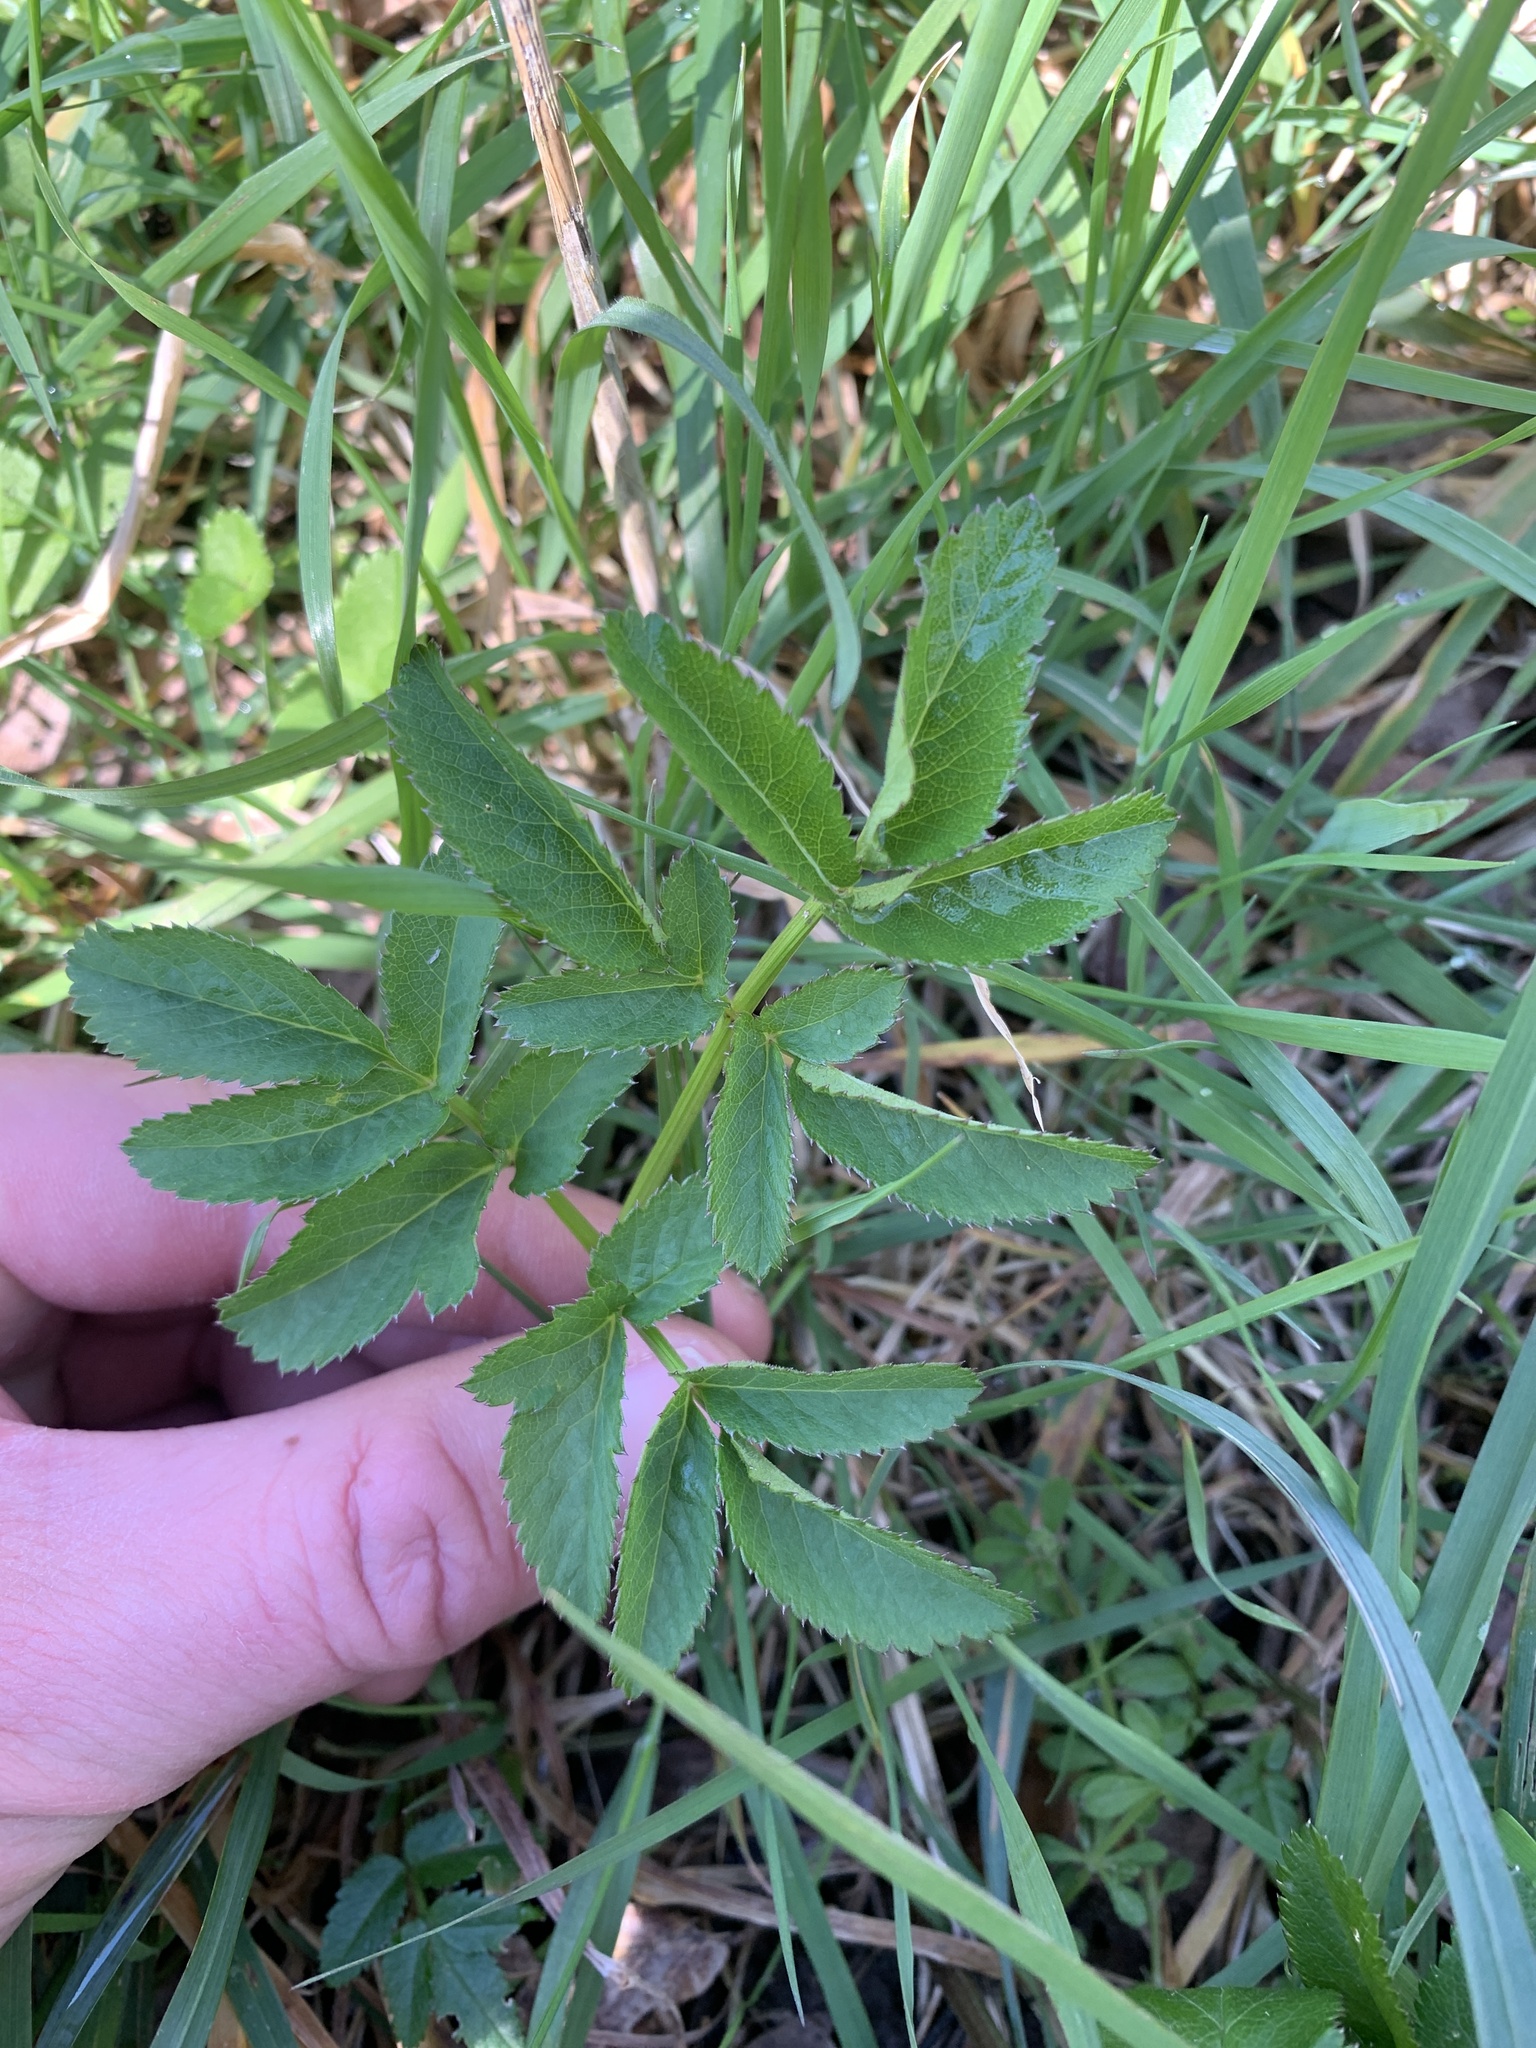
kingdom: Plantae
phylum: Tracheophyta
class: Magnoliopsida
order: Apiales
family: Apiaceae
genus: Angelica
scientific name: Angelica sylvestris
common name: Wild angelica
